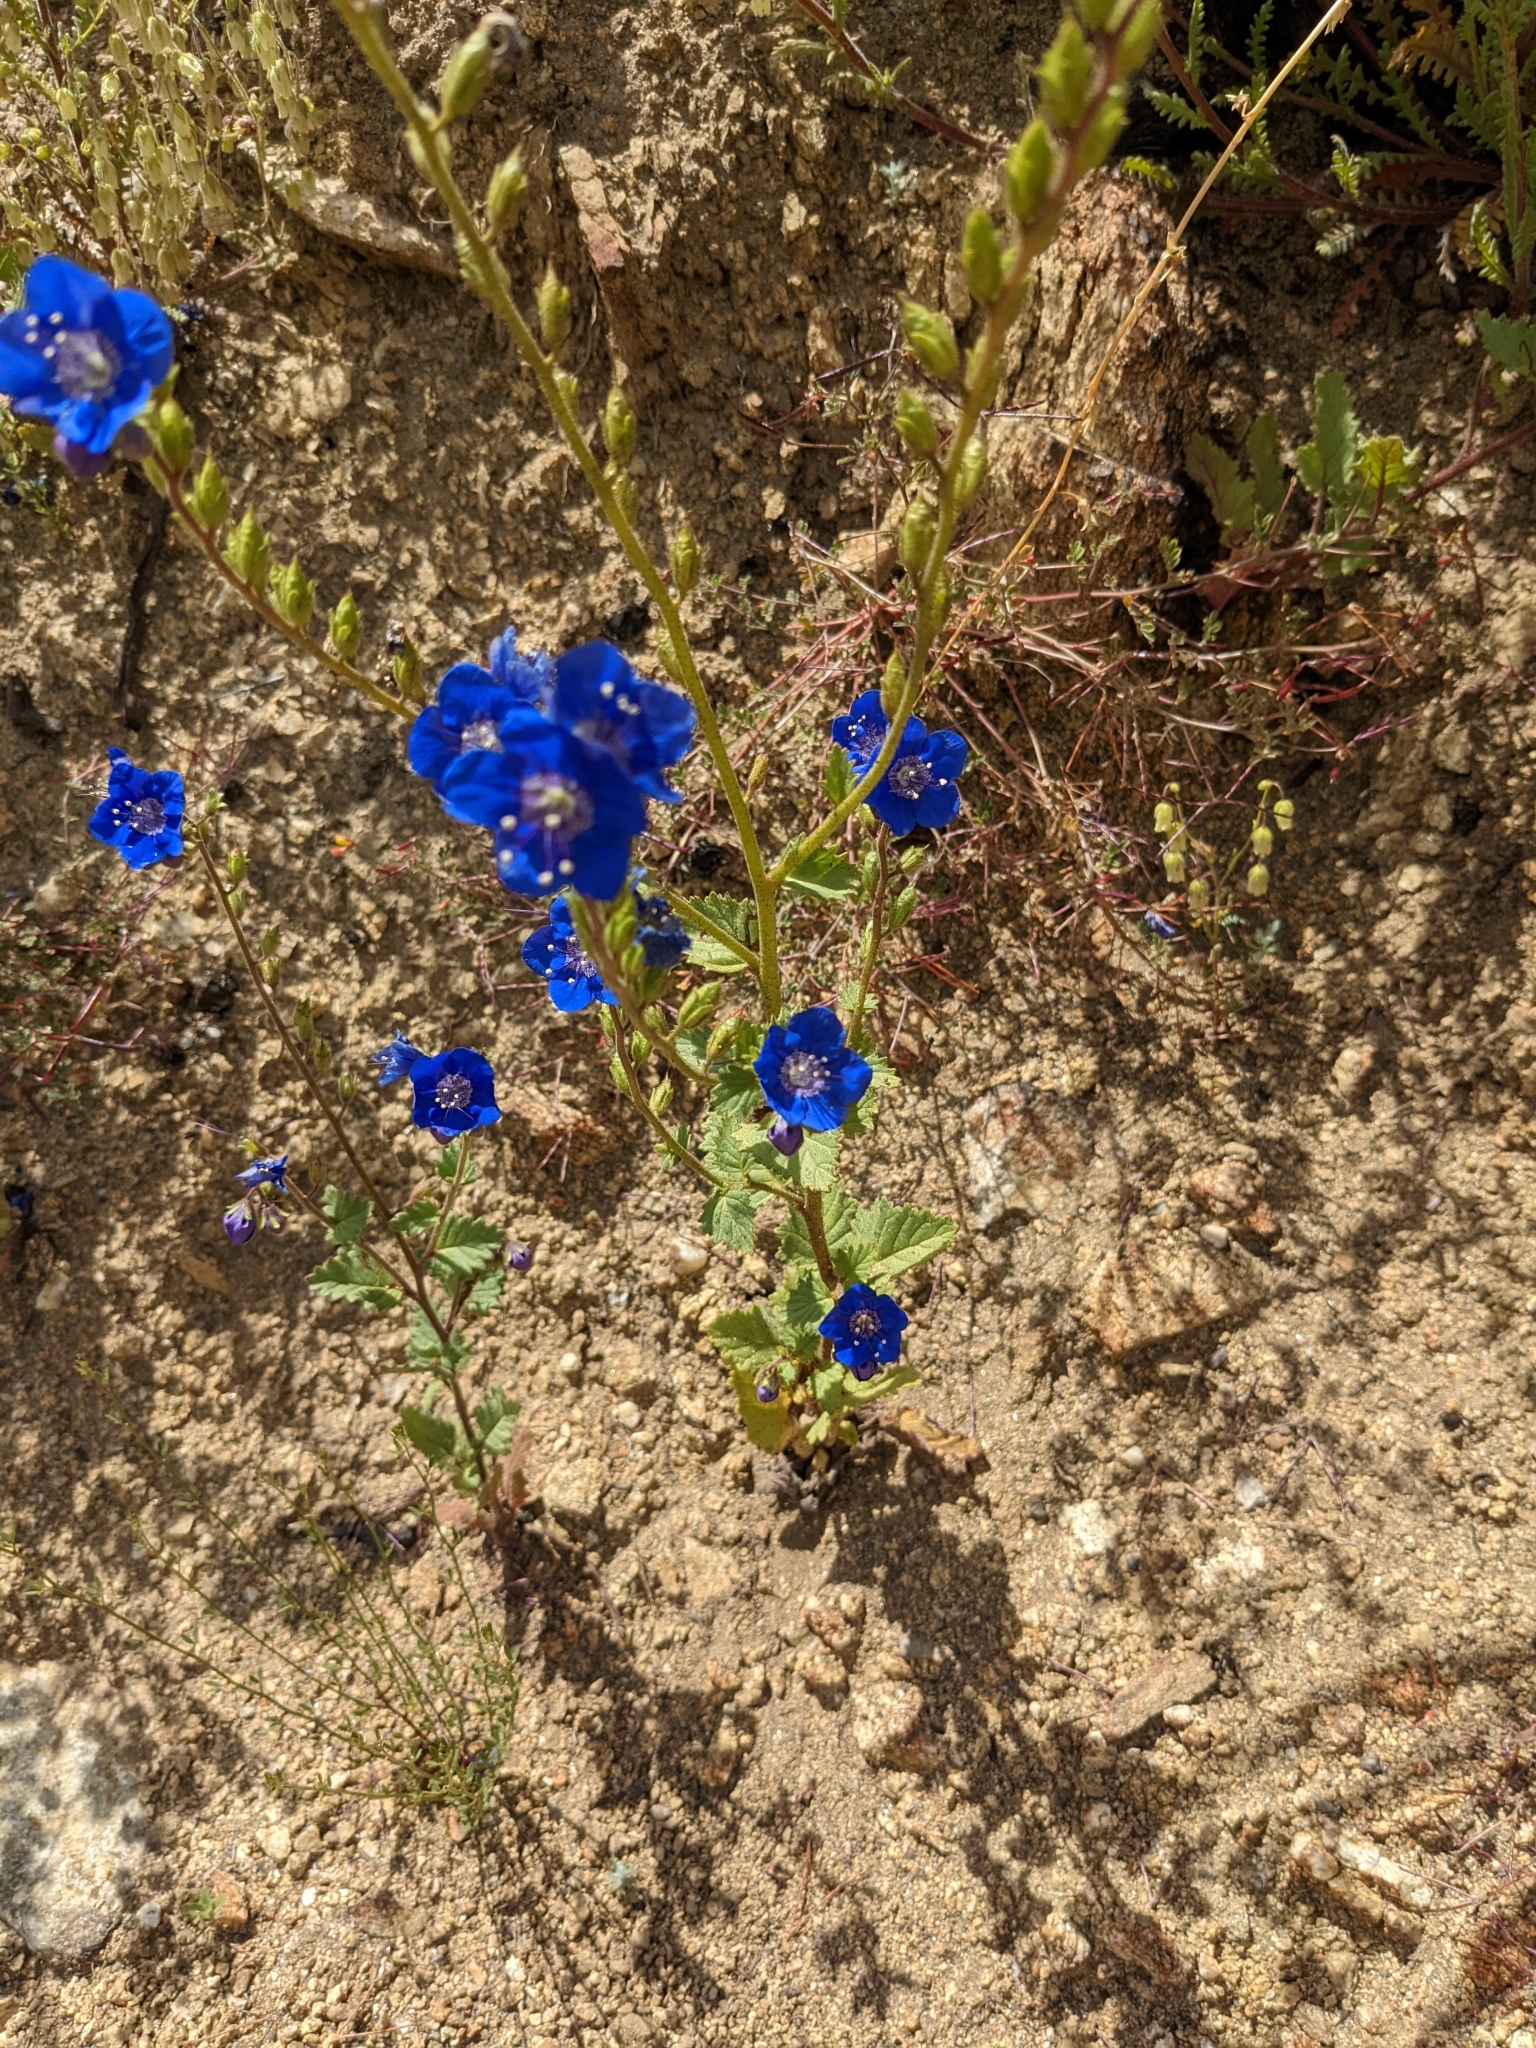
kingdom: Plantae
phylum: Tracheophyta
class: Magnoliopsida
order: Boraginales
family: Hydrophyllaceae
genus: Phacelia
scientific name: Phacelia viscida
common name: Sticky phacelia
